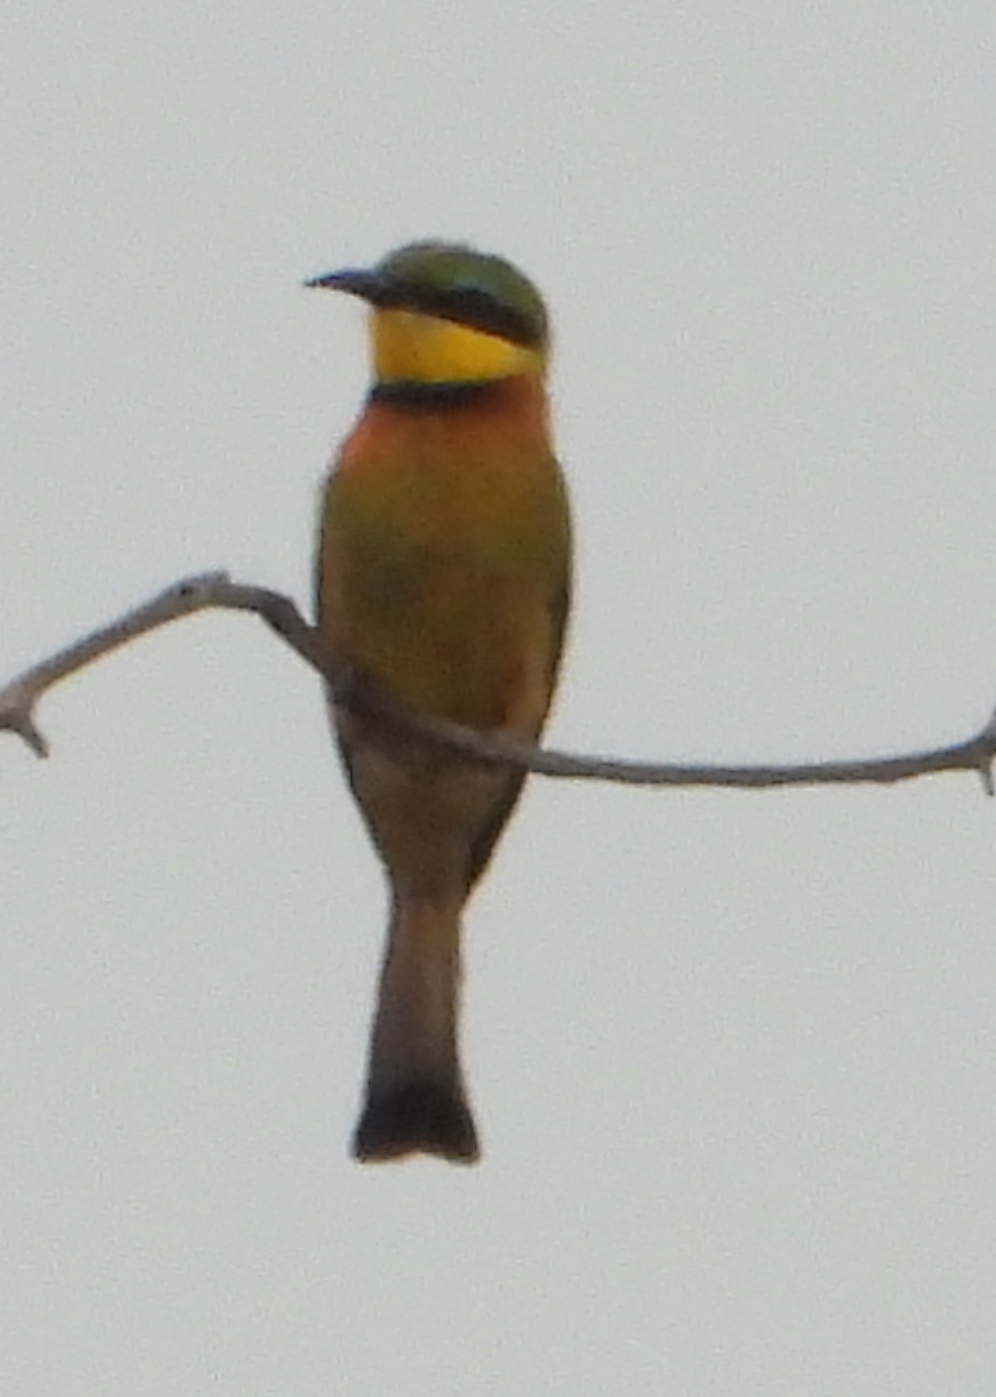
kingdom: Animalia
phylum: Chordata
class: Aves
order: Coraciiformes
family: Meropidae
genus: Merops
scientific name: Merops pusillus
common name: Little bee-eater
